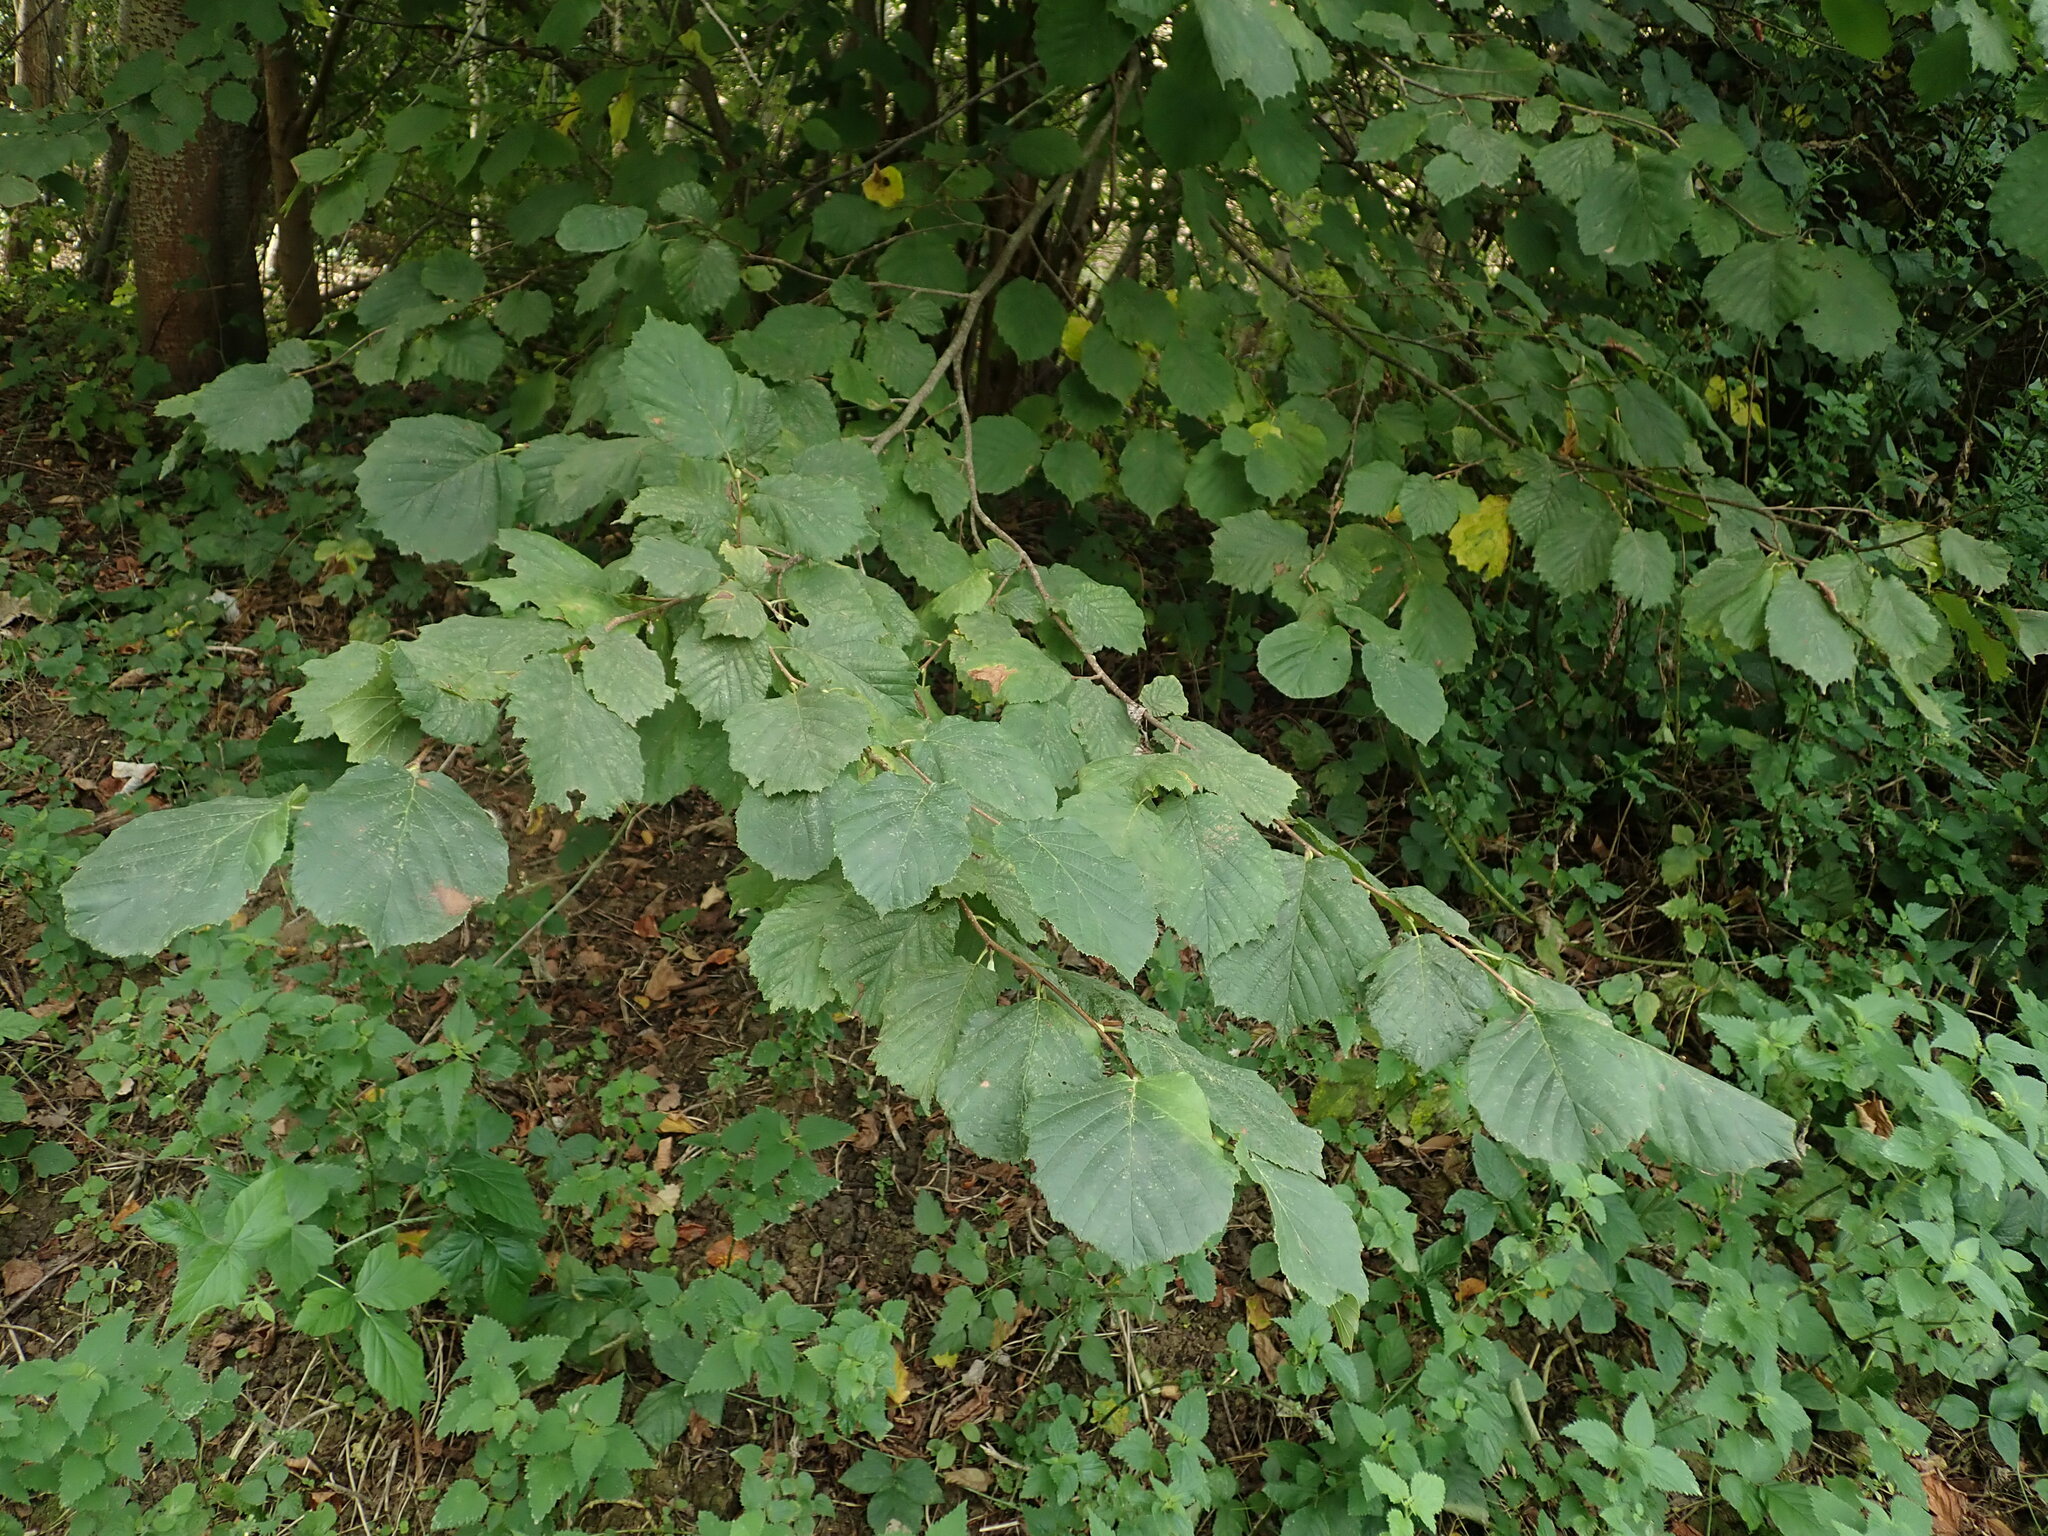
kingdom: Plantae
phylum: Tracheophyta
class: Magnoliopsida
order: Fagales
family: Betulaceae
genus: Corylus
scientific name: Corylus avellana
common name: European hazel
